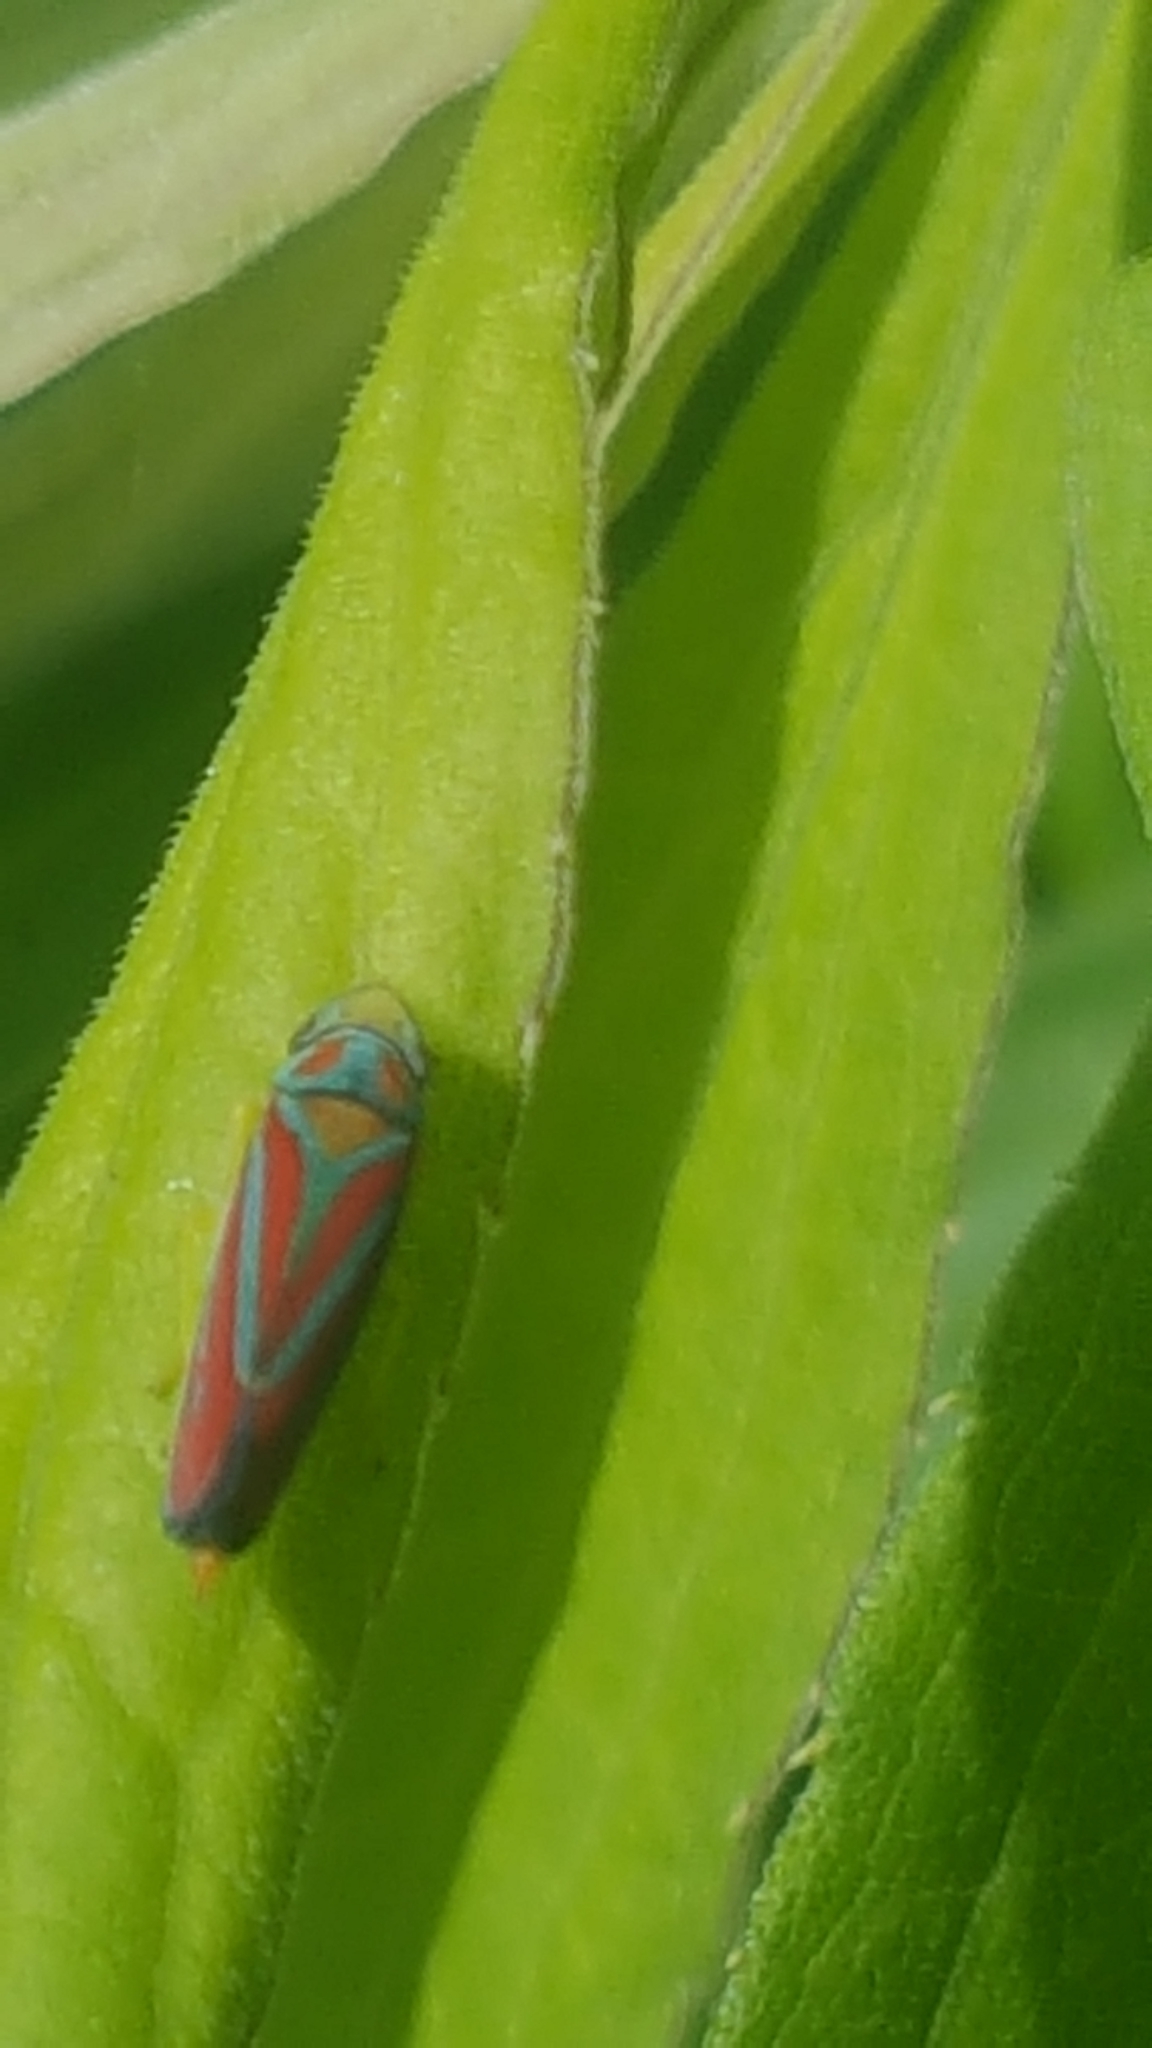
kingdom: Animalia
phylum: Arthropoda
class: Insecta
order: Hemiptera
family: Cicadellidae
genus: Graphocephala
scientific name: Graphocephala coccinea
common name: Candy-striped leafhopper
